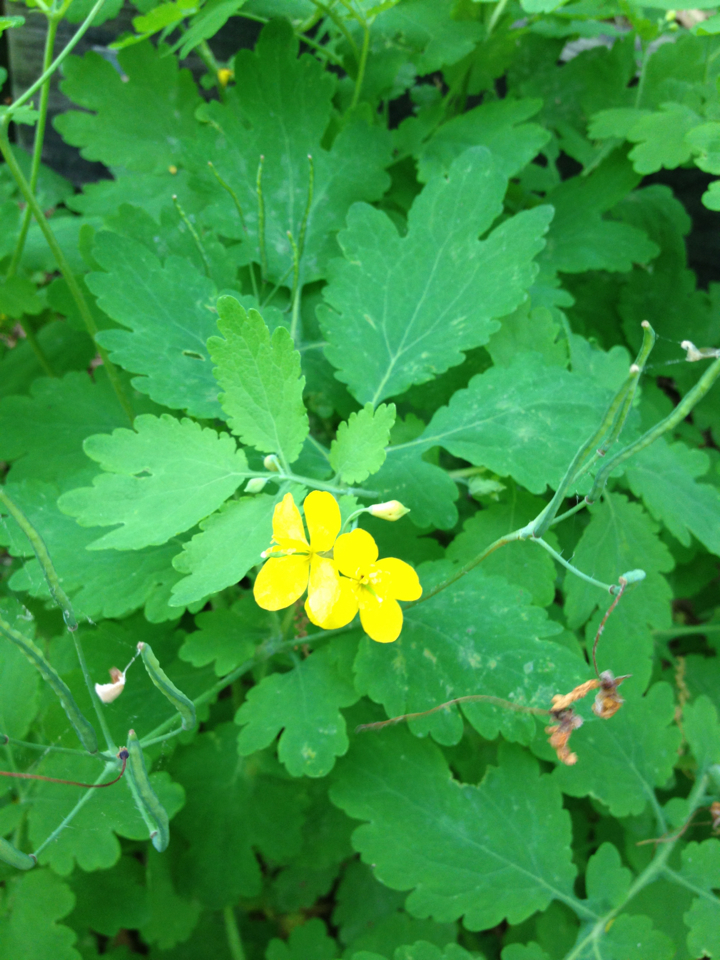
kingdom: Plantae
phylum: Tracheophyta
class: Magnoliopsida
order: Ranunculales
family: Papaveraceae
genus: Chelidonium
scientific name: Chelidonium majus
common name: Greater celandine
